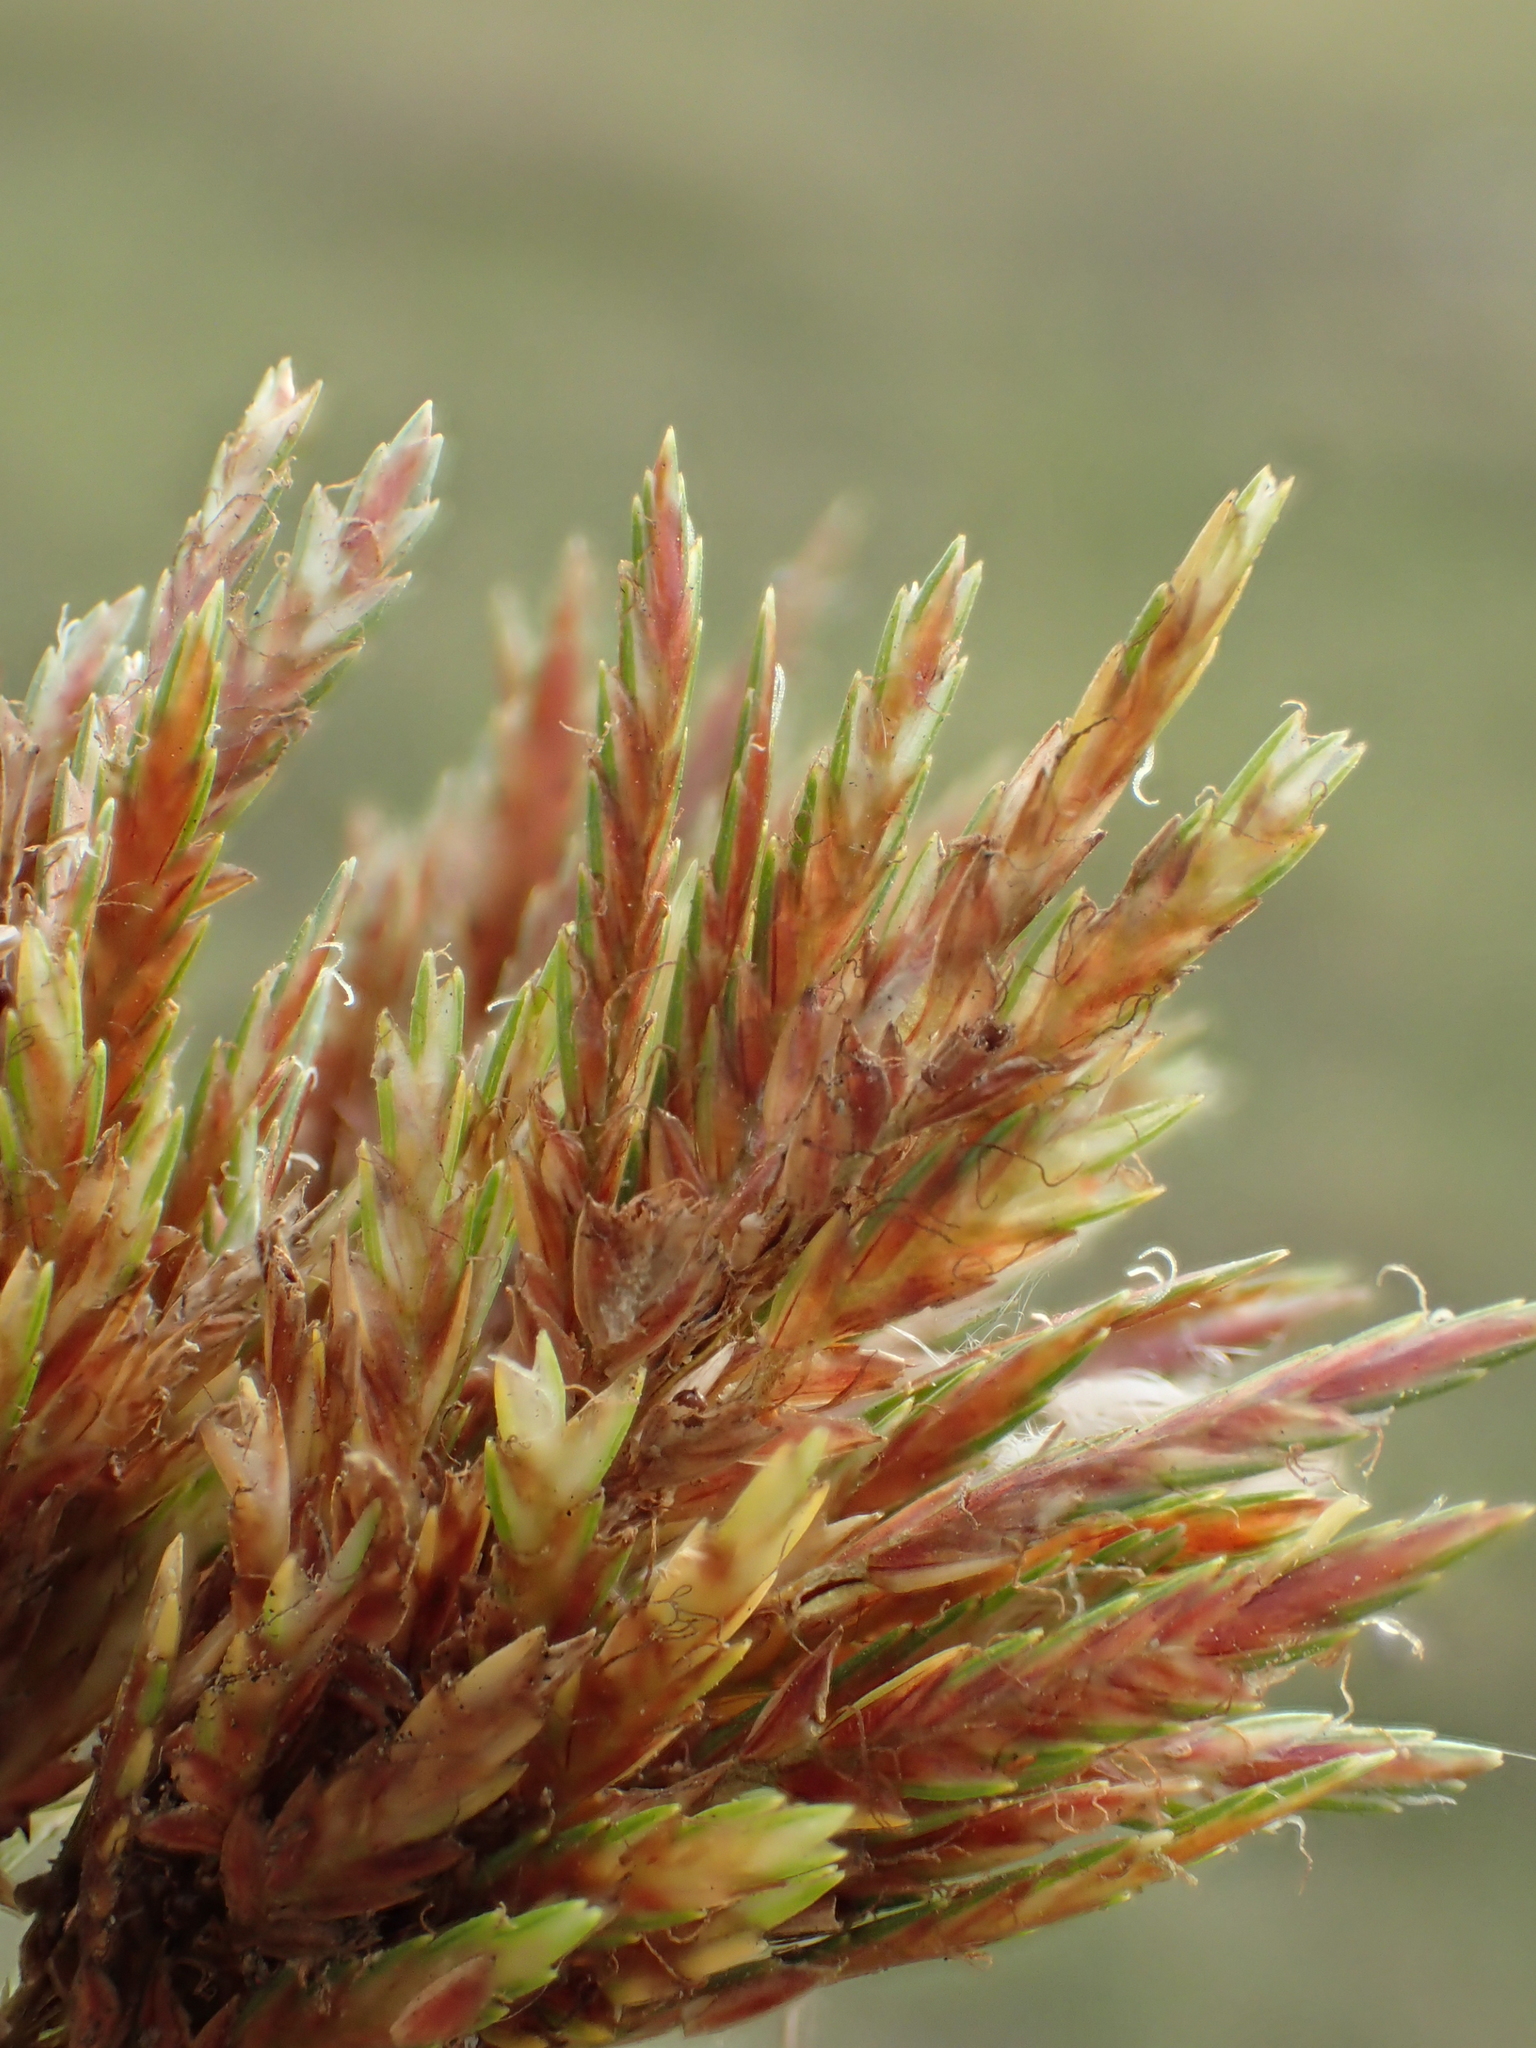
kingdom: Plantae
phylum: Tracheophyta
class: Liliopsida
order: Poales
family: Cyperaceae
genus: Cyperus
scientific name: Cyperus polystachyos
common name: Bunchy flat sedge
